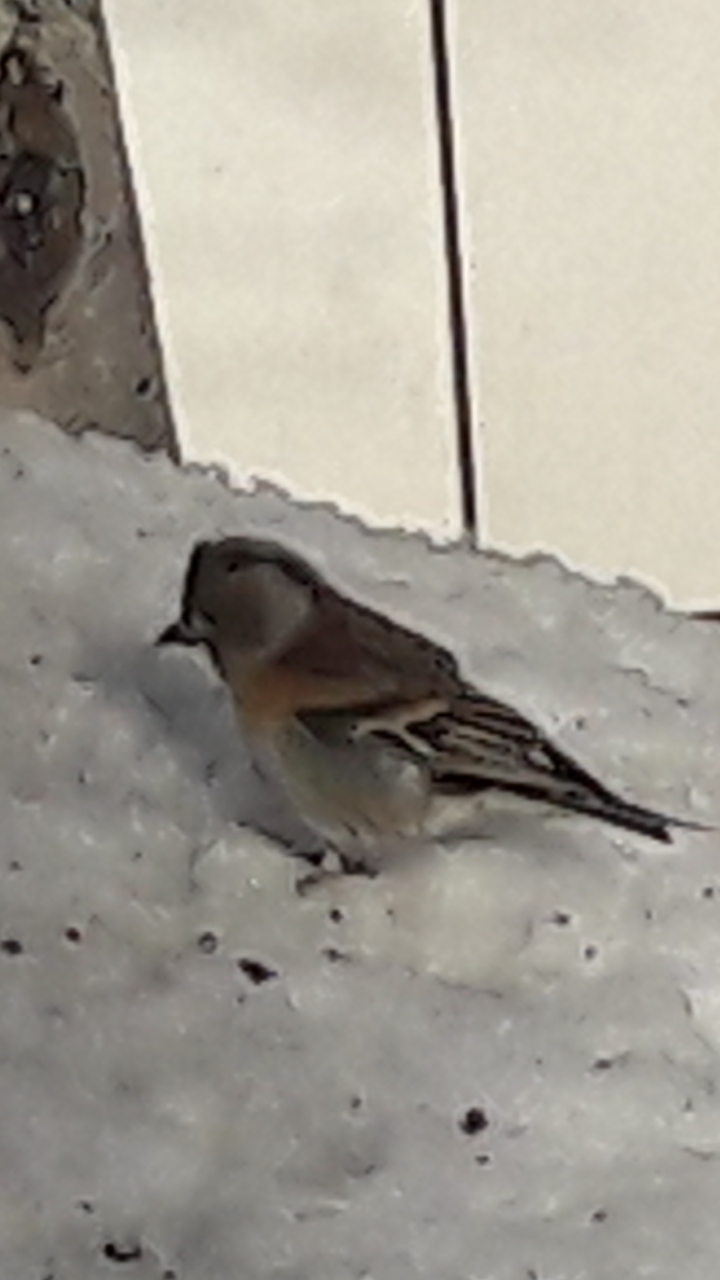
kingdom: Animalia
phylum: Chordata
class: Aves
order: Passeriformes
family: Fringillidae
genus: Fringilla
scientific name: Fringilla montifringilla
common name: Brambling
